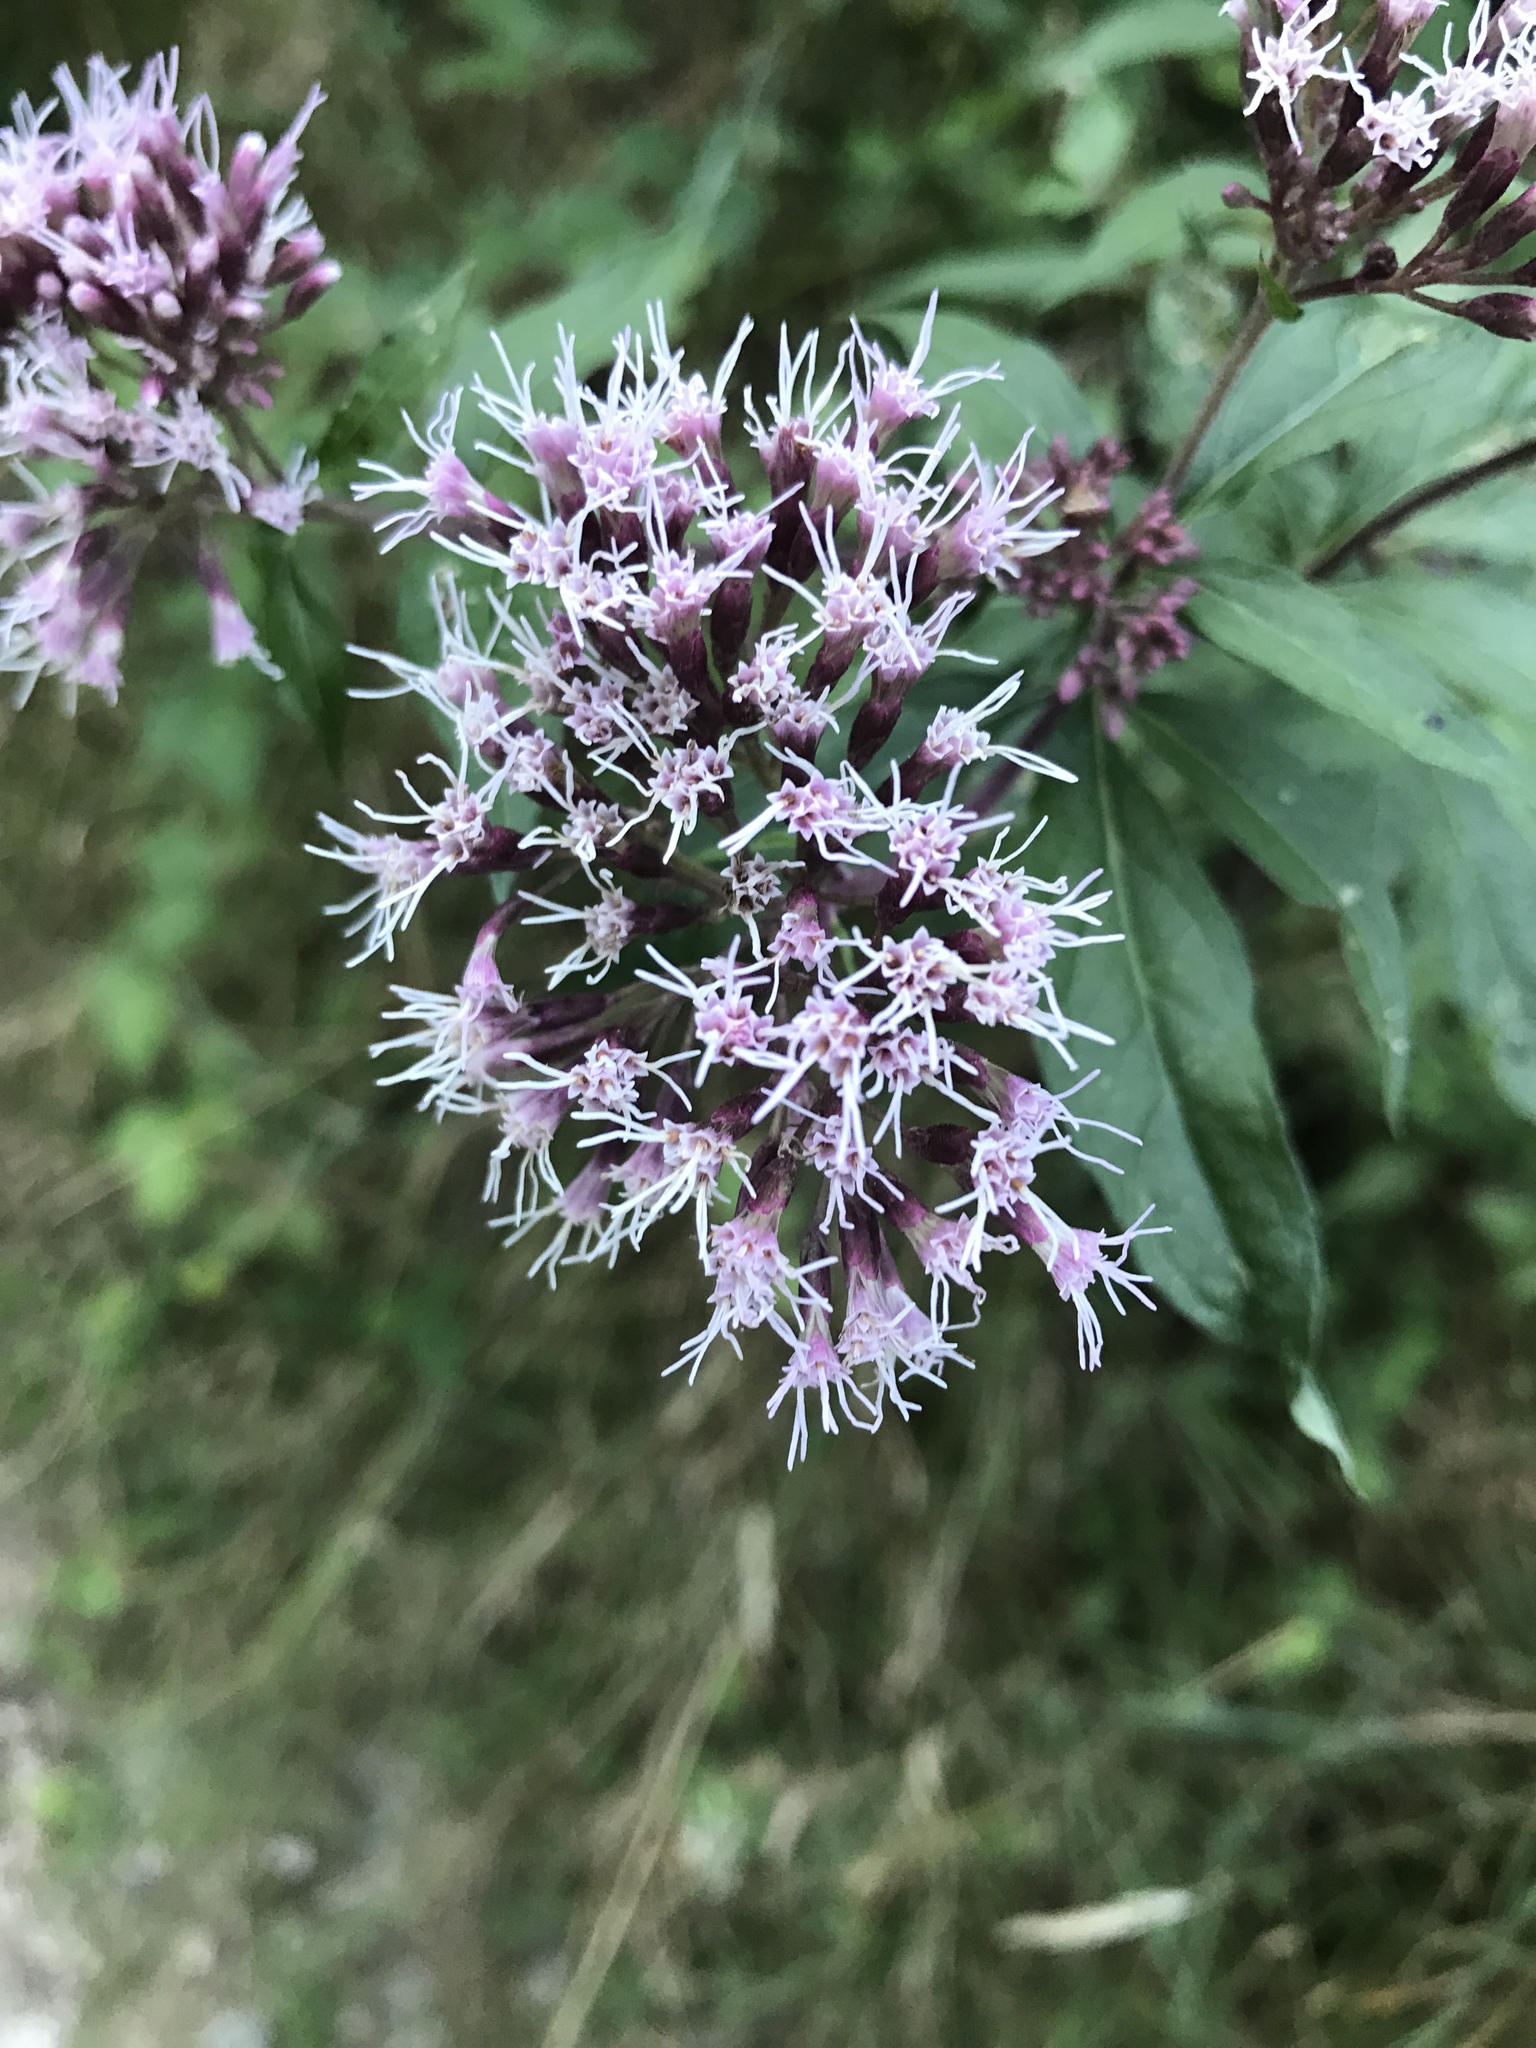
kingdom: Plantae
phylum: Tracheophyta
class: Magnoliopsida
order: Asterales
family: Asteraceae
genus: Eupatorium
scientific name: Eupatorium cannabinum
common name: Hemp-agrimony
